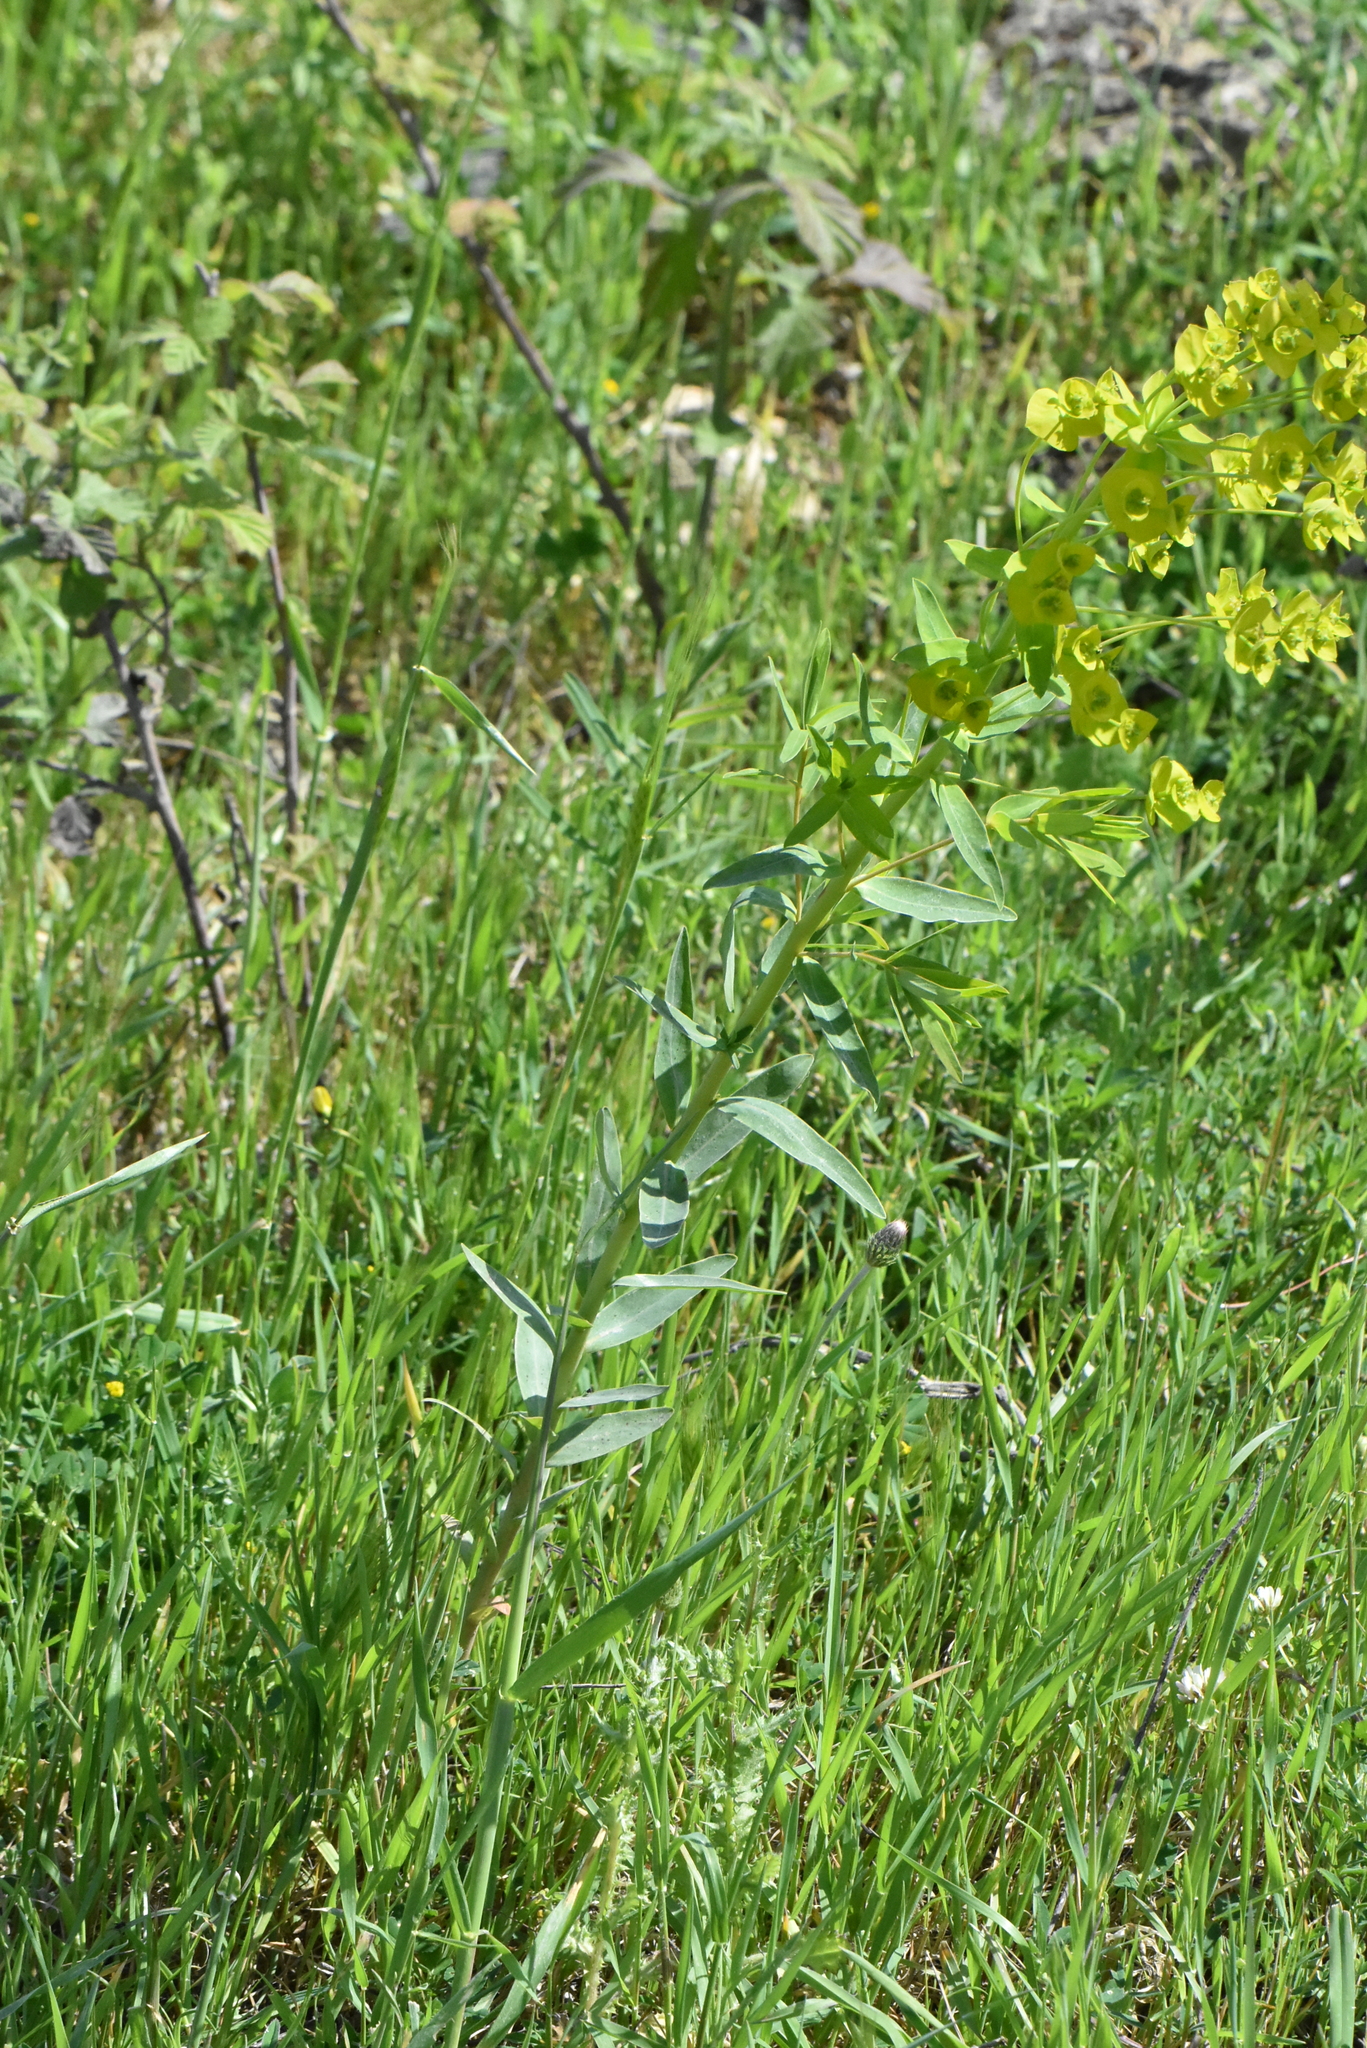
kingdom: Plantae
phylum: Tracheophyta
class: Magnoliopsida
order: Malpighiales
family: Euphorbiaceae
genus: Euphorbia
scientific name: Euphorbia virgata
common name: Leafy spurge
